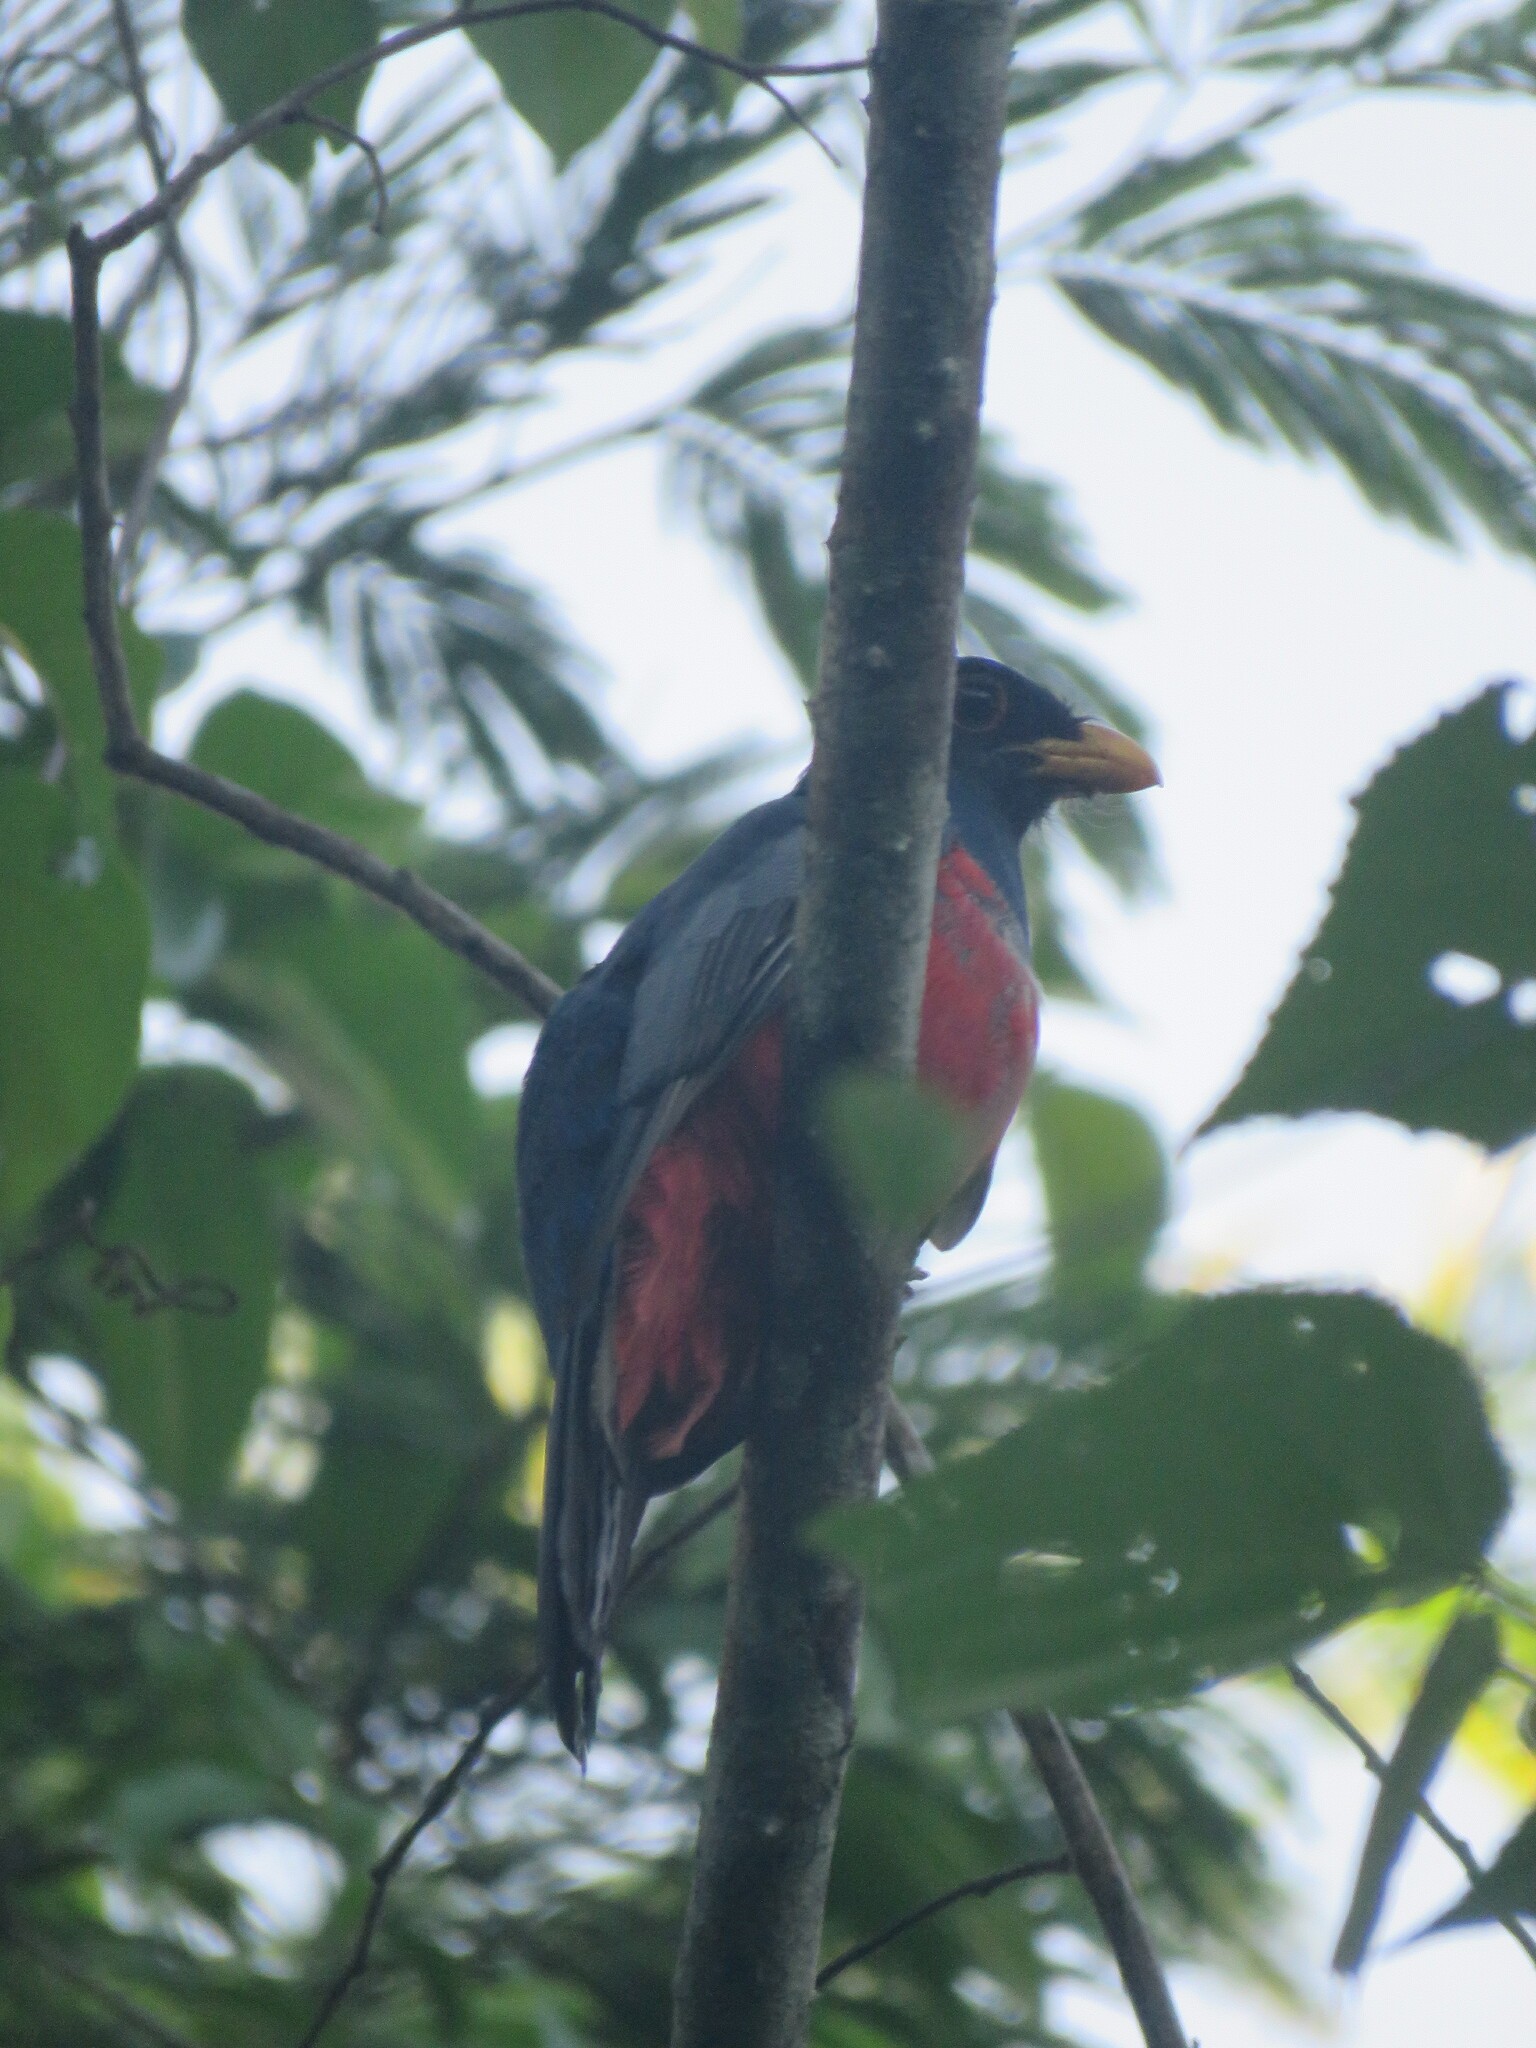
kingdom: Animalia
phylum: Chordata
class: Aves
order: Trogoniformes
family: Trogonidae
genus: Trogon
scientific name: Trogon melanurus
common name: Black-tailed trogon
